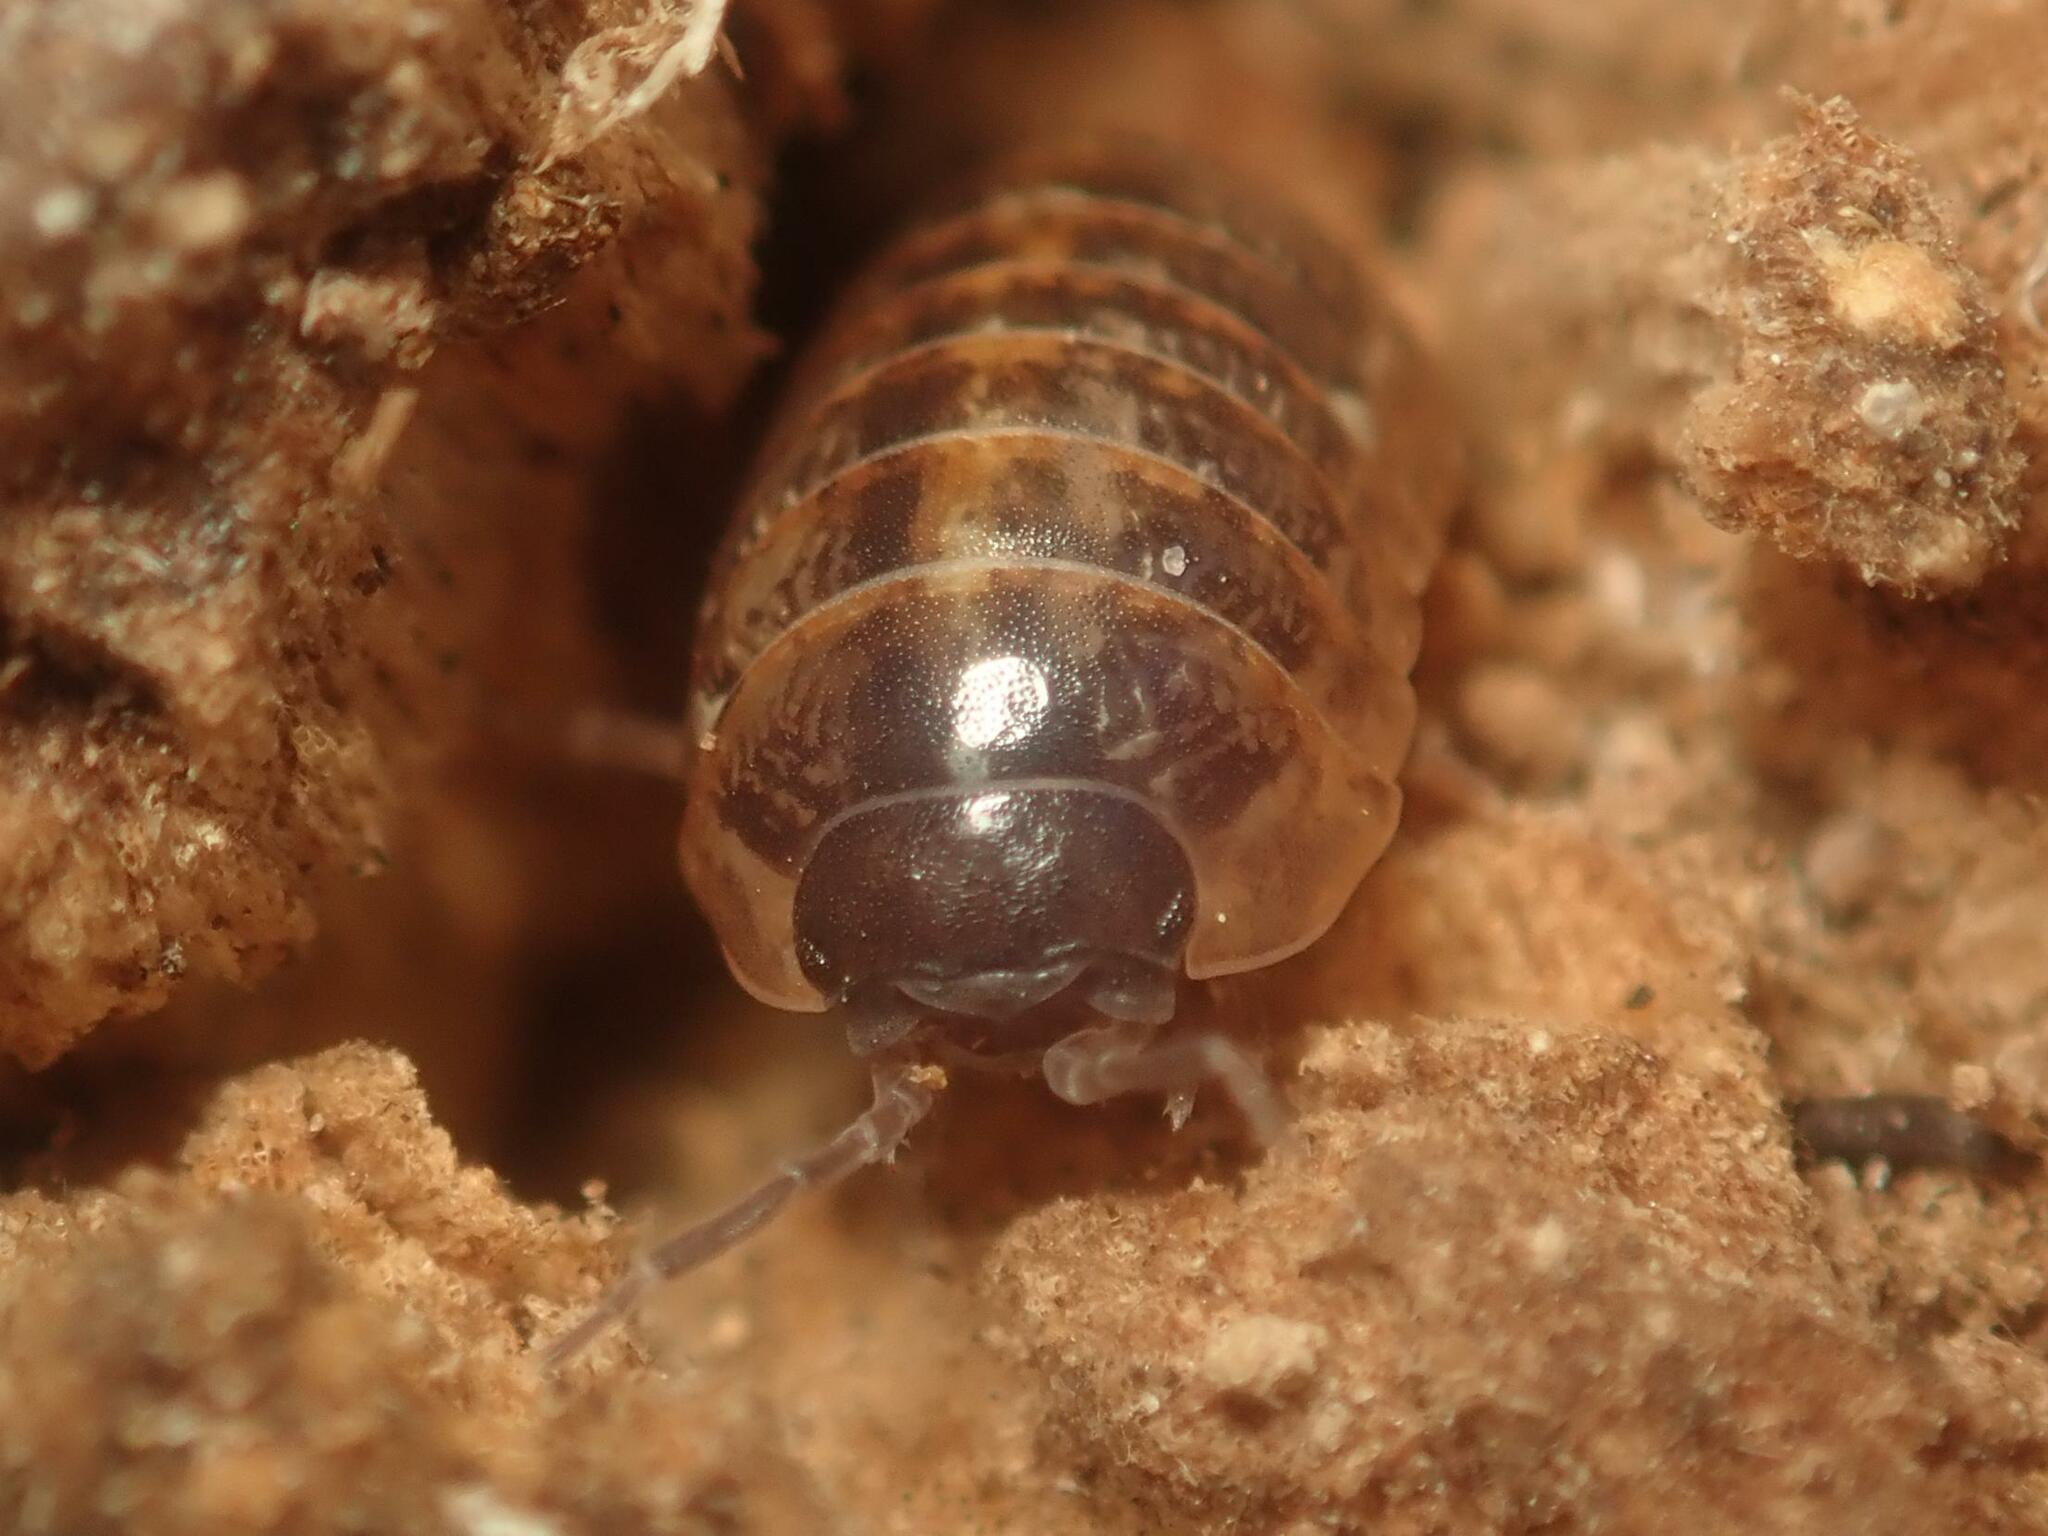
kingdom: Animalia
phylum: Arthropoda
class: Malacostraca
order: Isopoda
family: Armadillidiidae
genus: Armadillidium
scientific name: Armadillidium vulgare
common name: Common pill woodlouse
